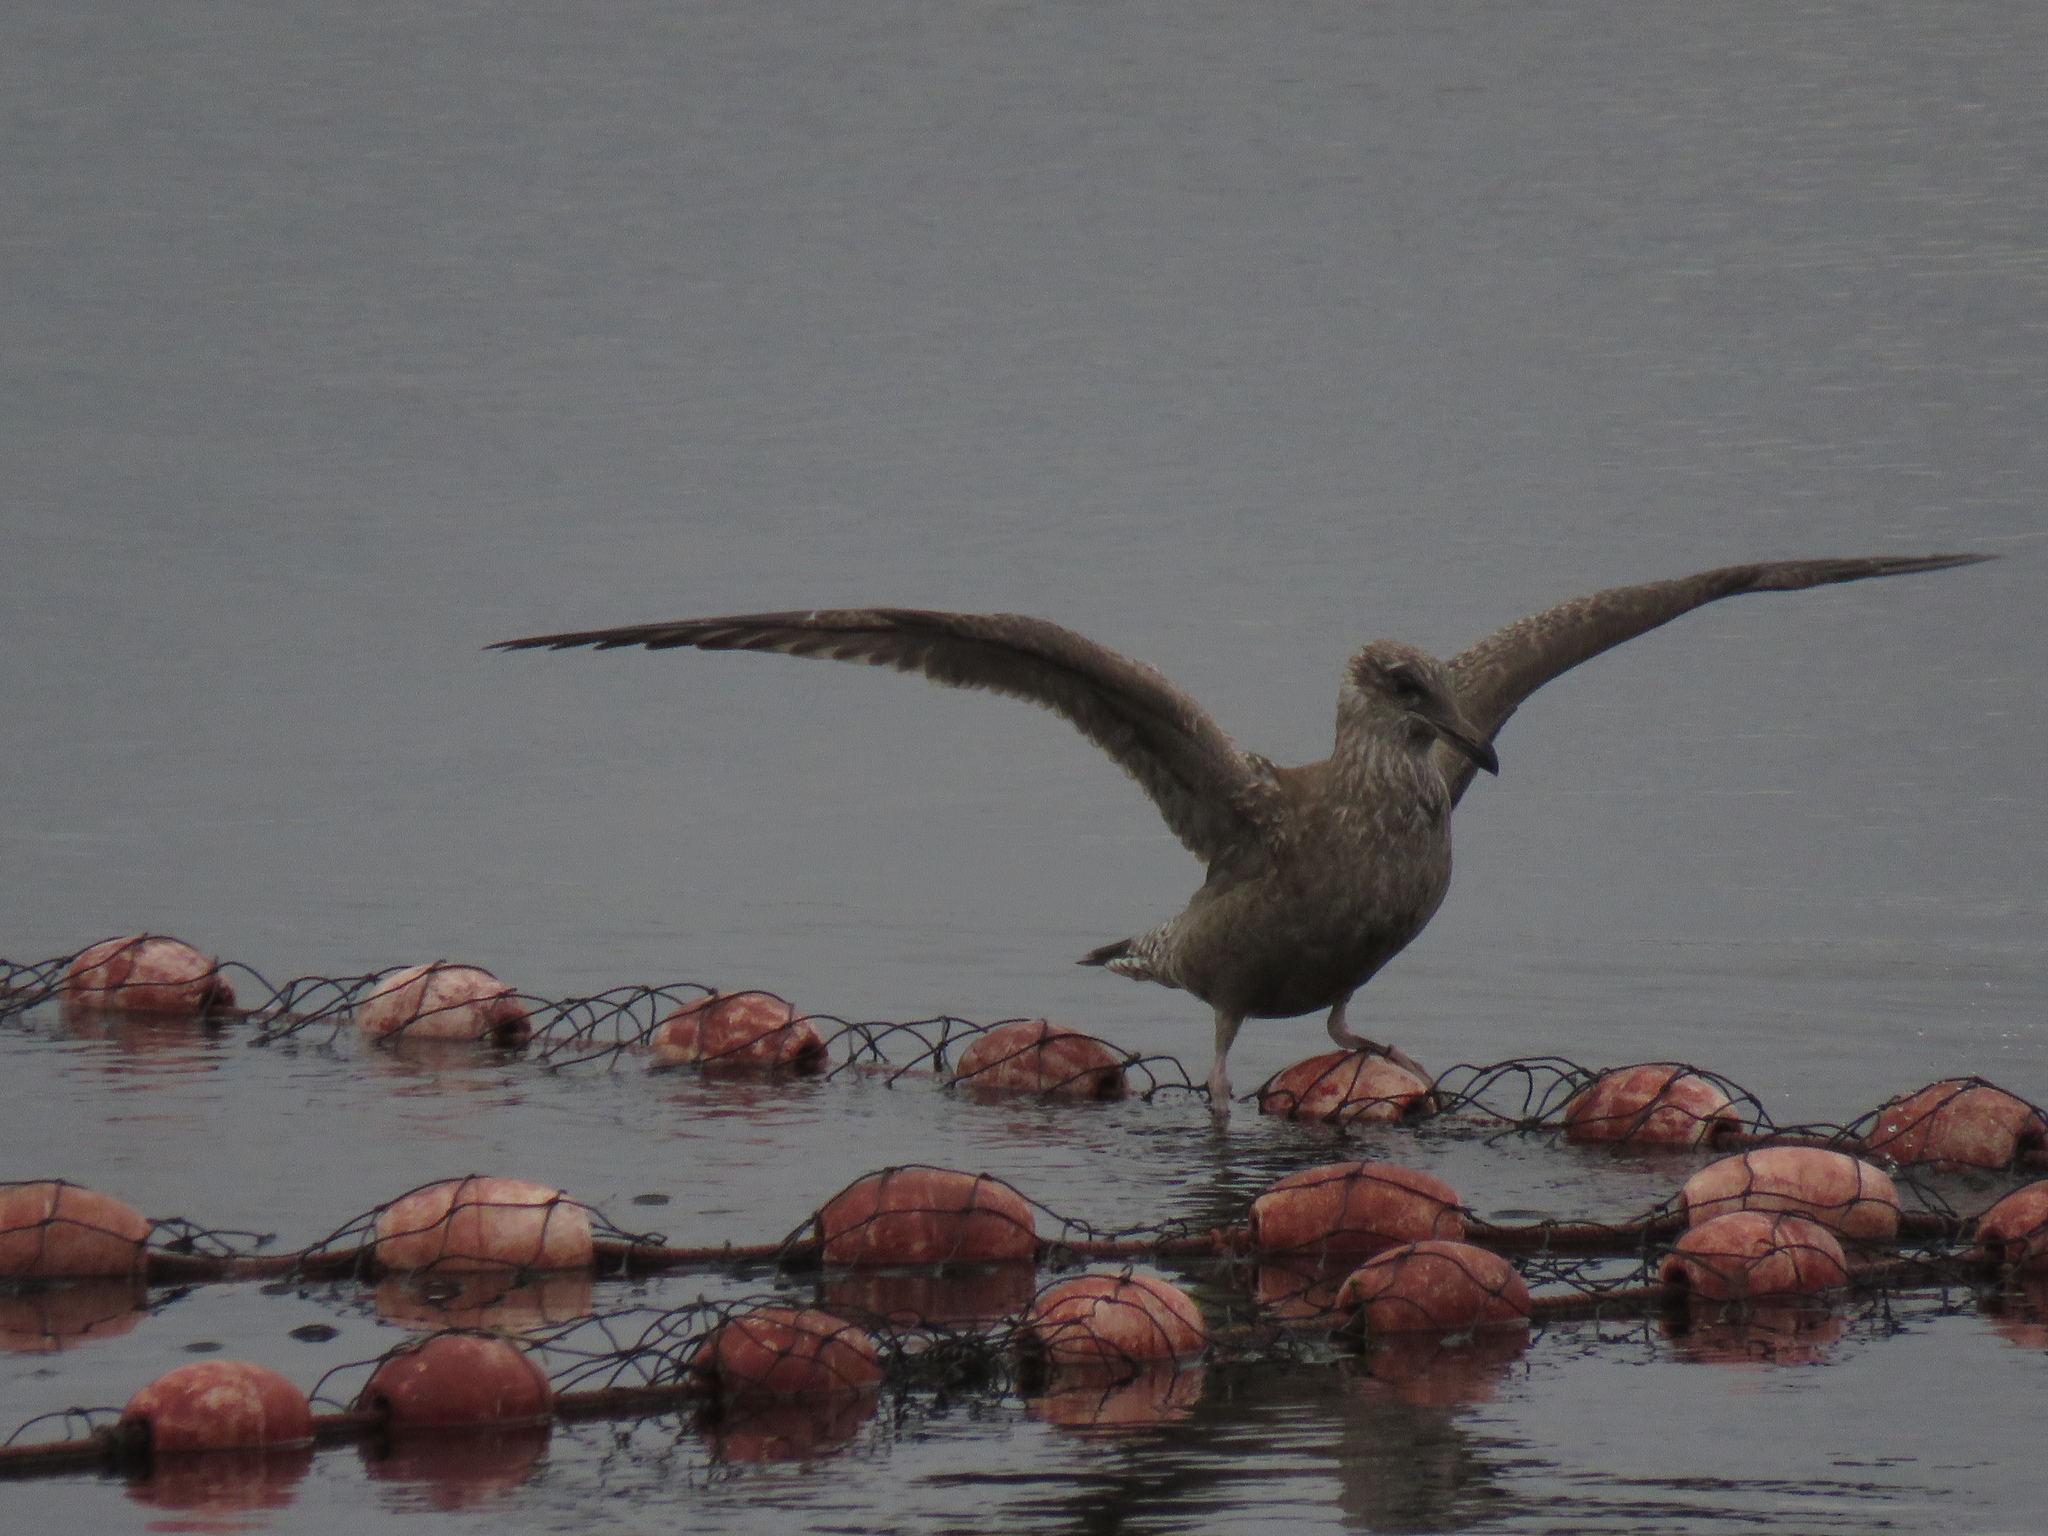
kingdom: Animalia
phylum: Chordata
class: Aves
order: Charadriiformes
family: Laridae
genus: Larus
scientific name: Larus argentatus
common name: Herring gull
